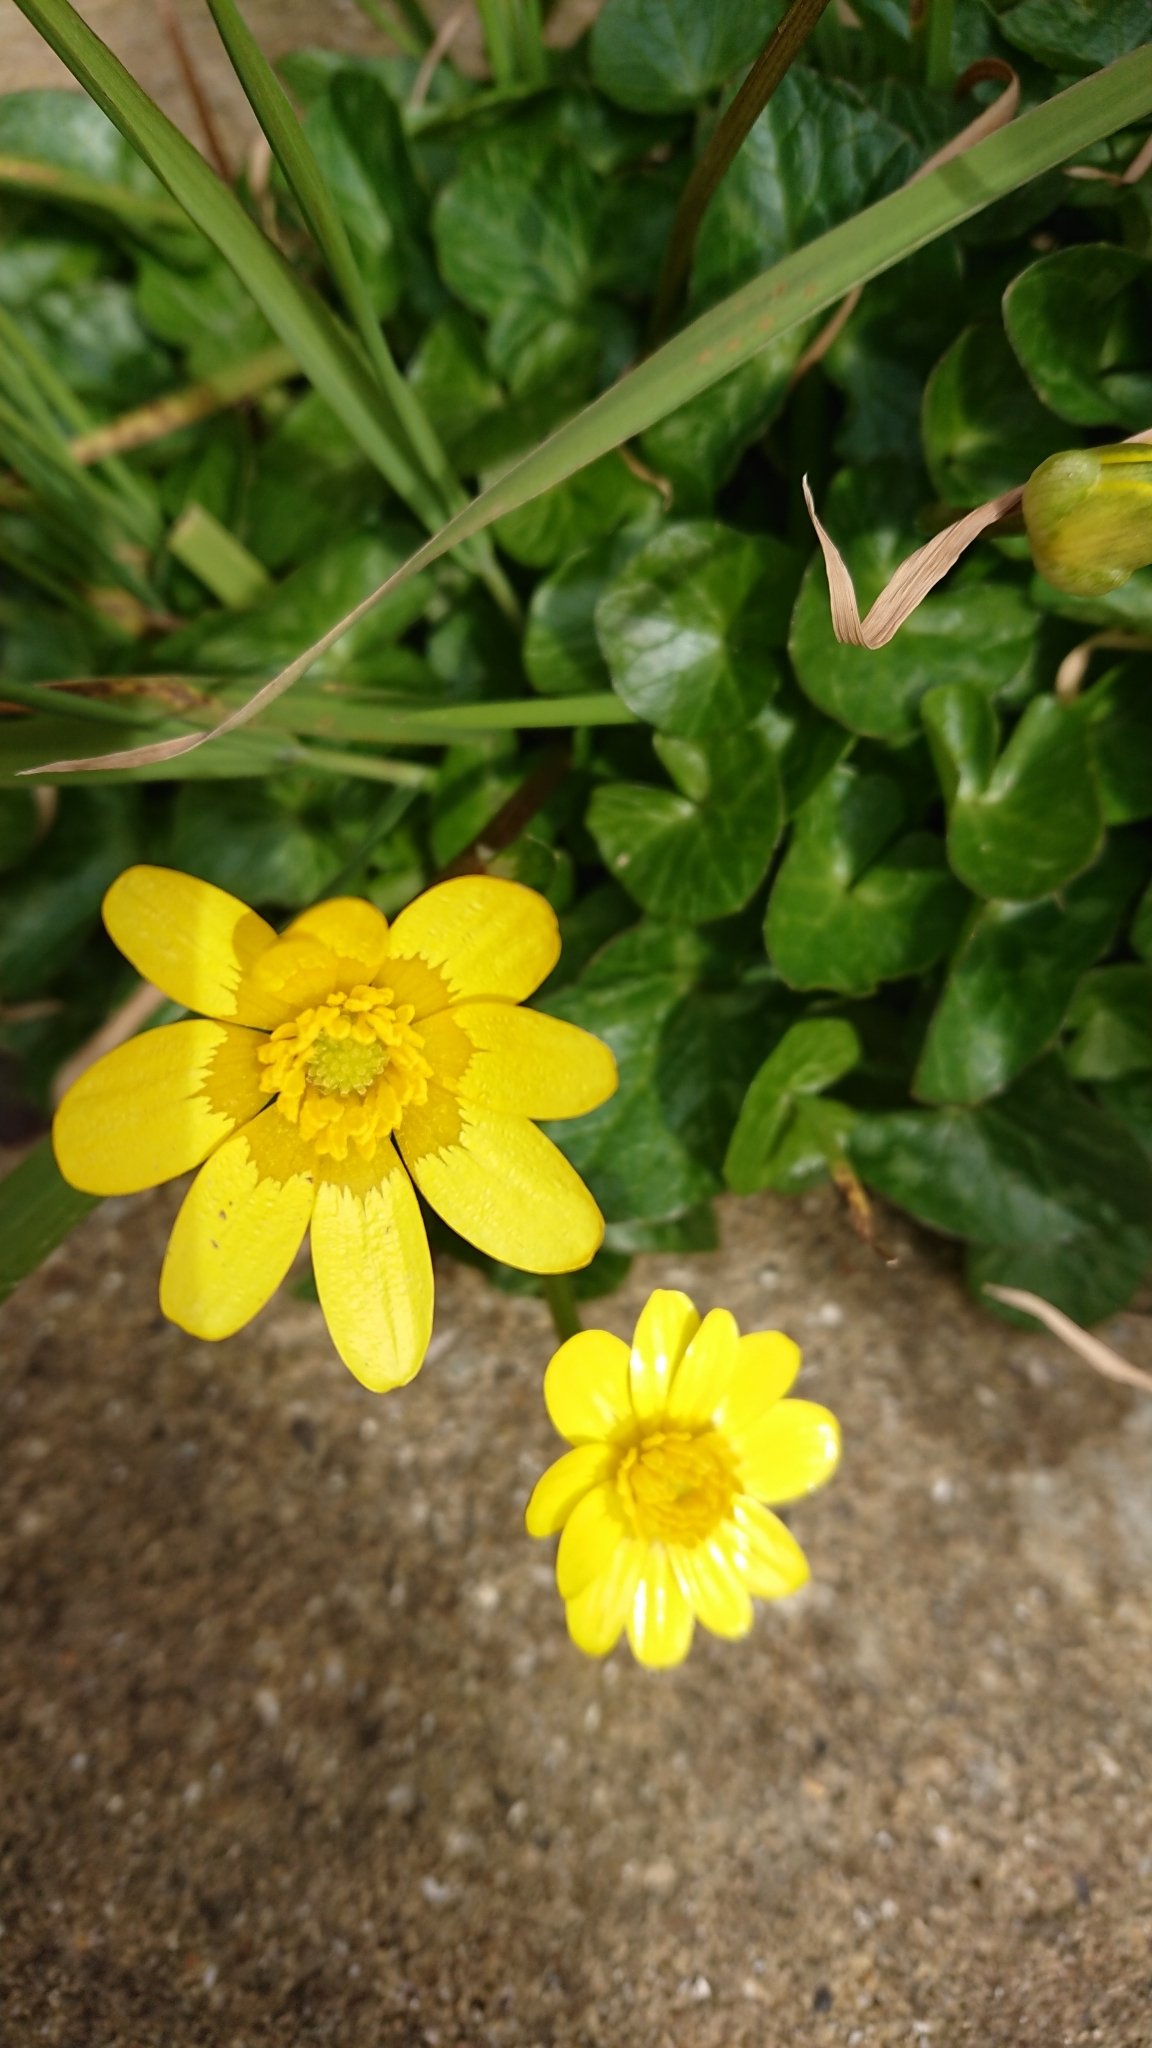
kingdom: Plantae
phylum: Tracheophyta
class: Magnoliopsida
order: Ranunculales
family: Ranunculaceae
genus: Ficaria
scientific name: Ficaria verna
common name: Lesser celandine
